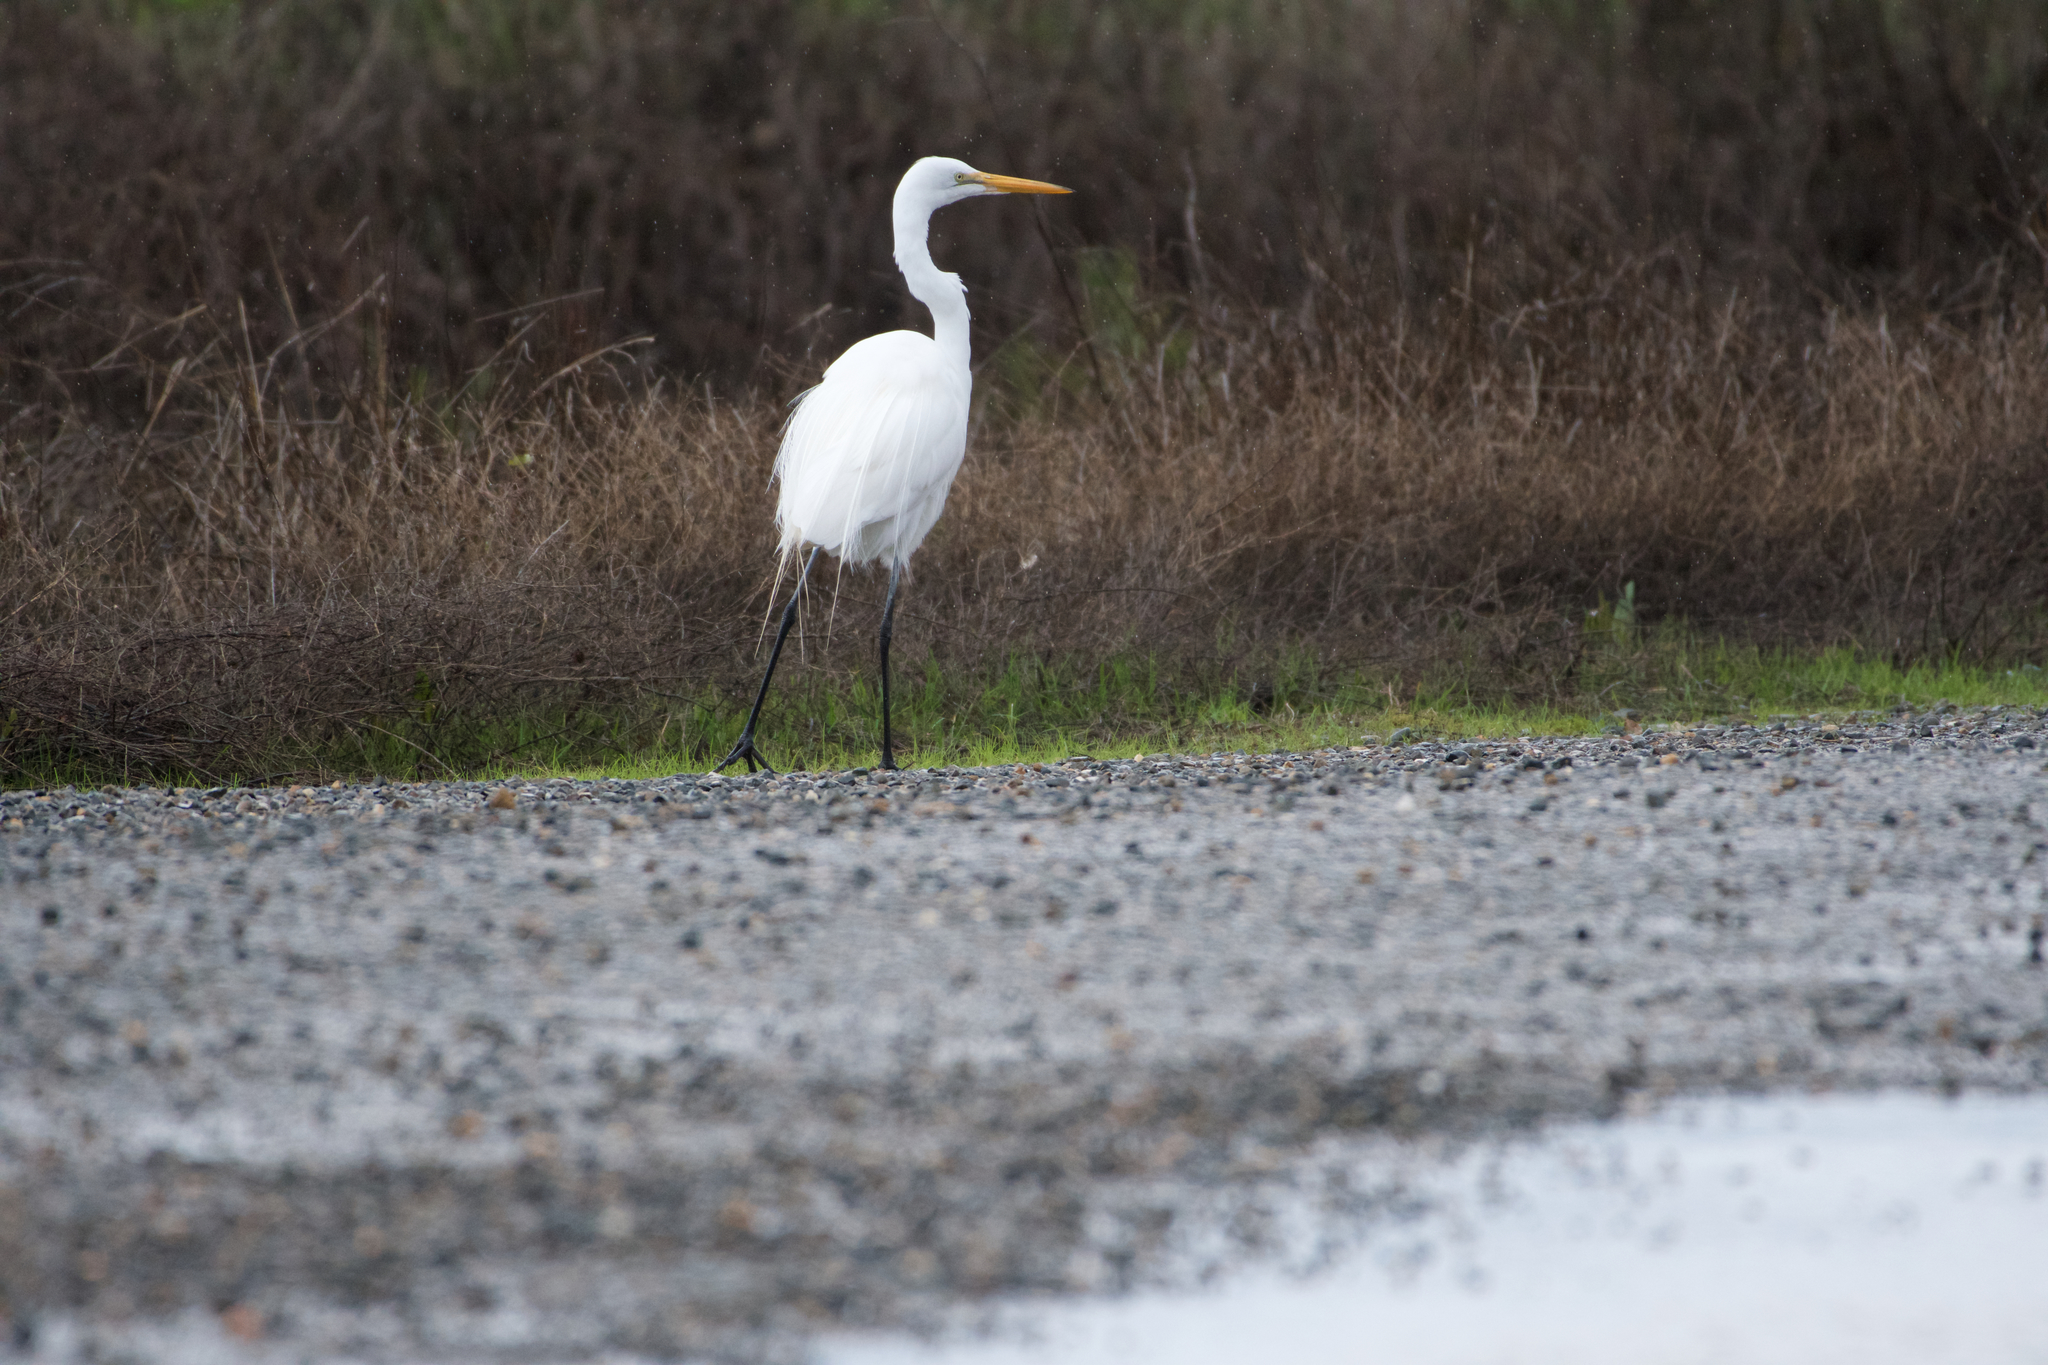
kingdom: Animalia
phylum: Chordata
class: Aves
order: Pelecaniformes
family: Ardeidae
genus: Ardea
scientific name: Ardea alba
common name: Great egret
